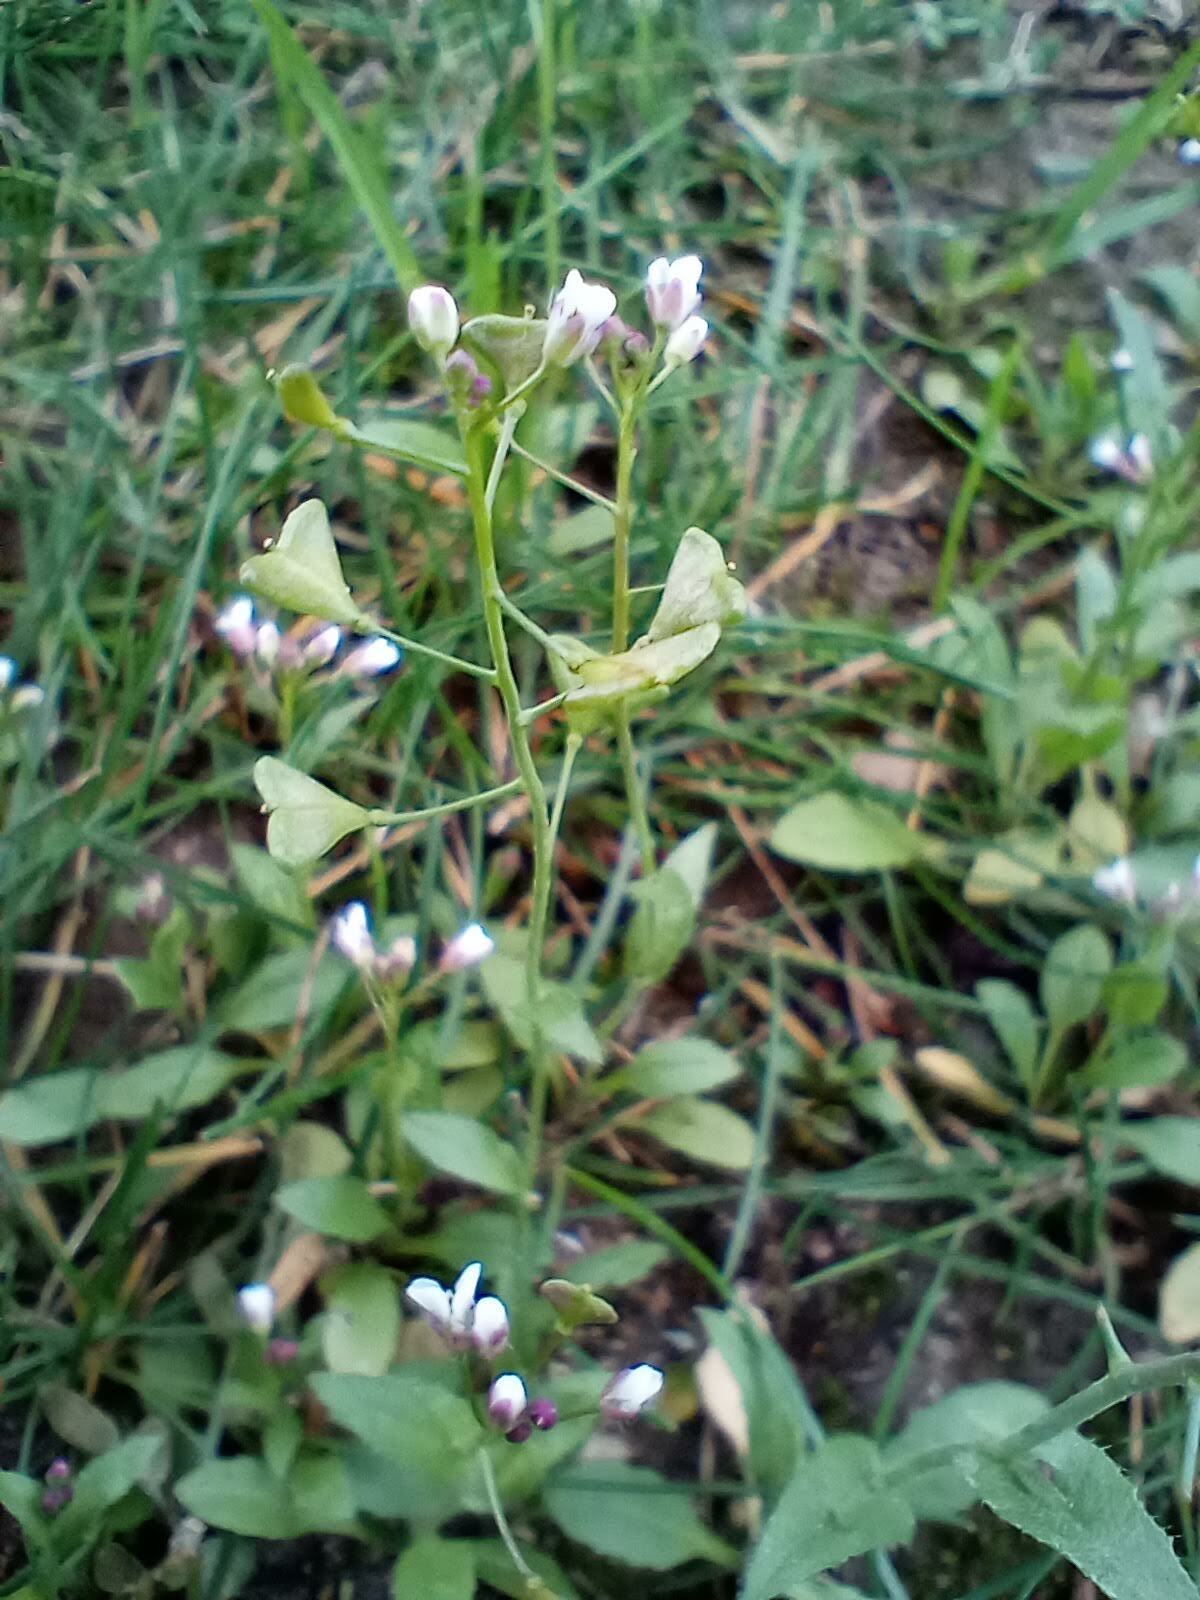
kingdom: Plantae
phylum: Tracheophyta
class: Magnoliopsida
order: Brassicales
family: Brassicaceae
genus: Capsella
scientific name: Capsella bursa-pastoris
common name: Shepherd's purse
